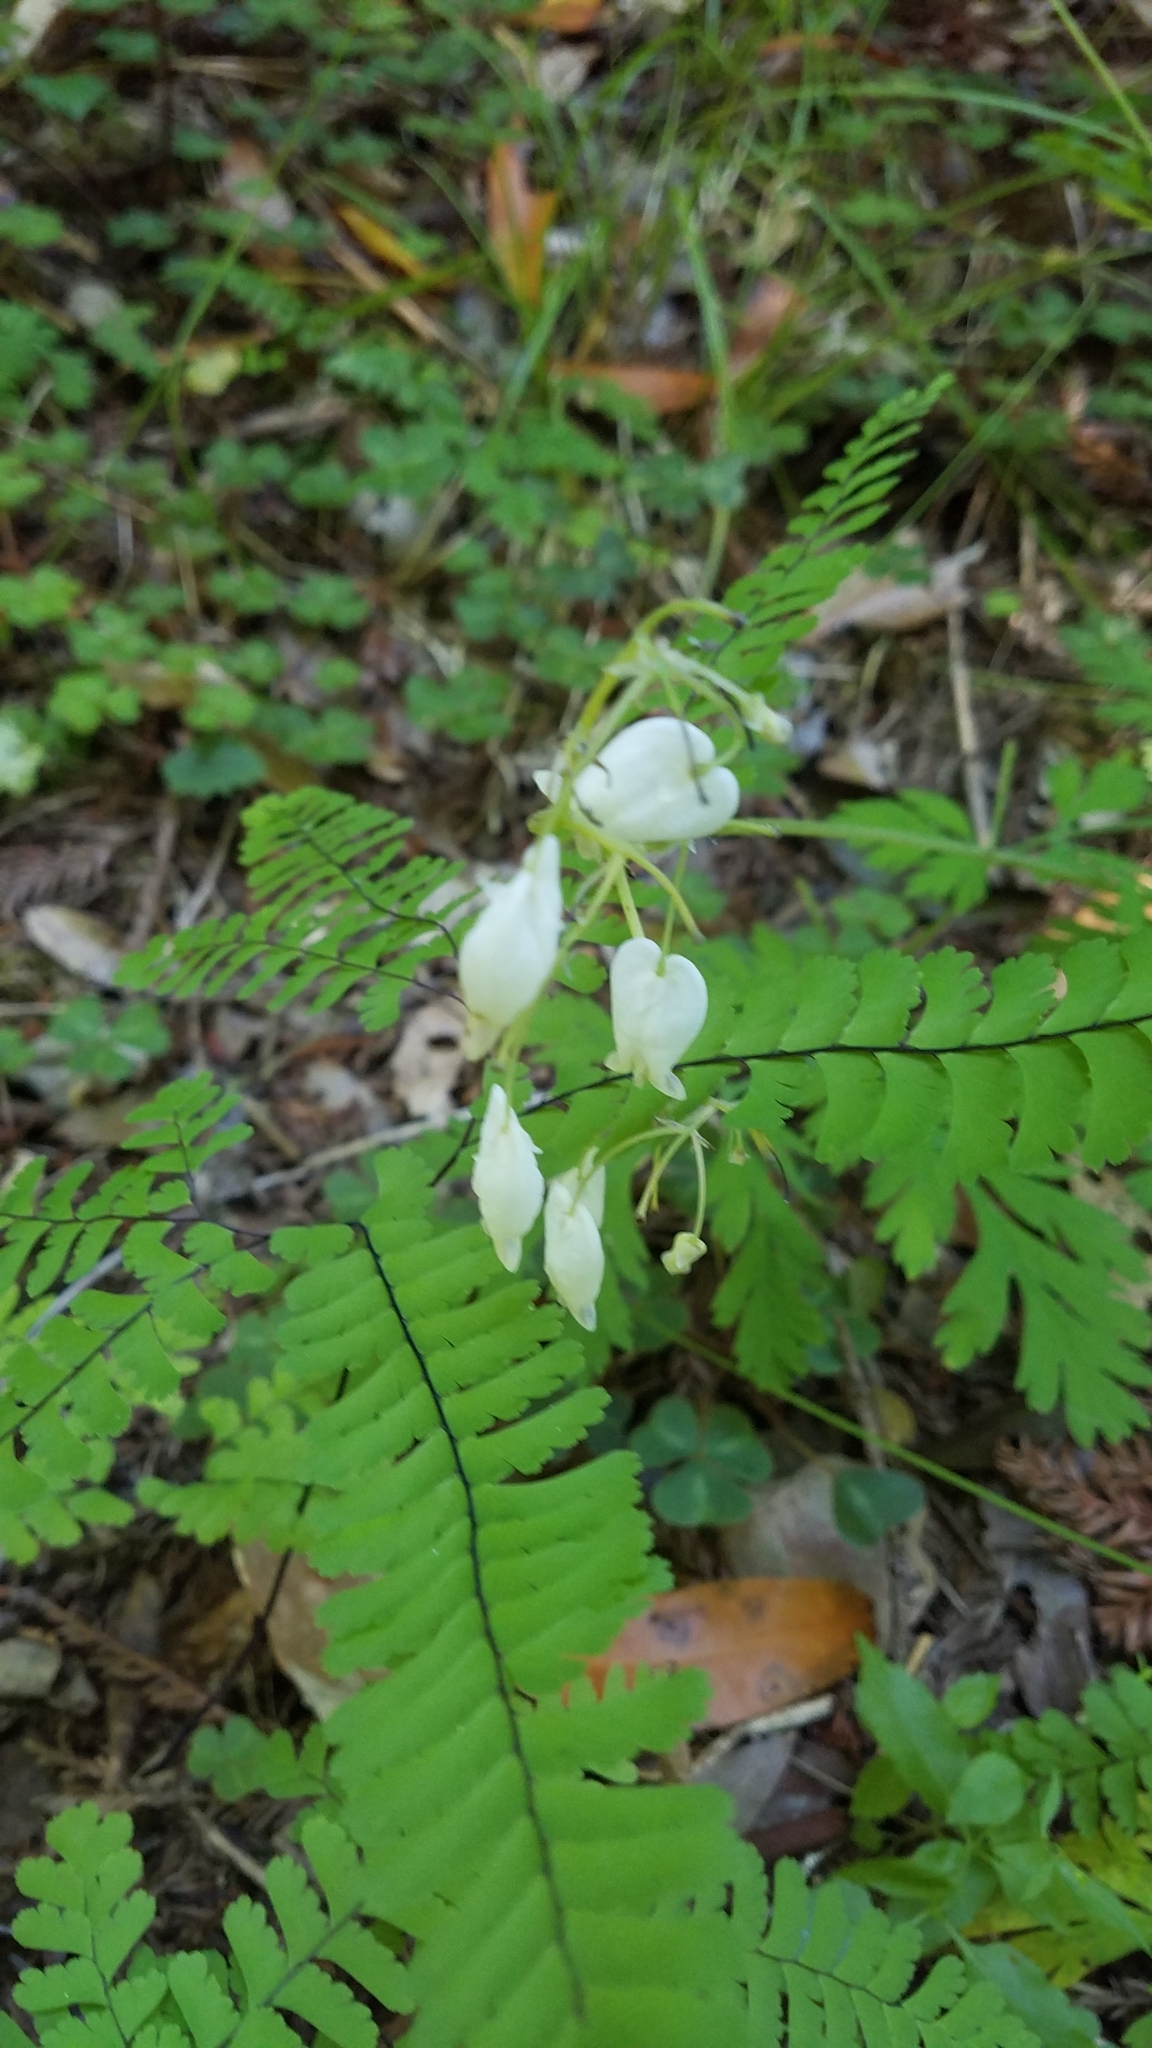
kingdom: Plantae
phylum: Tracheophyta
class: Magnoliopsida
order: Ranunculales
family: Papaveraceae
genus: Dicentra
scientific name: Dicentra formosa
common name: Bleeding-heart
